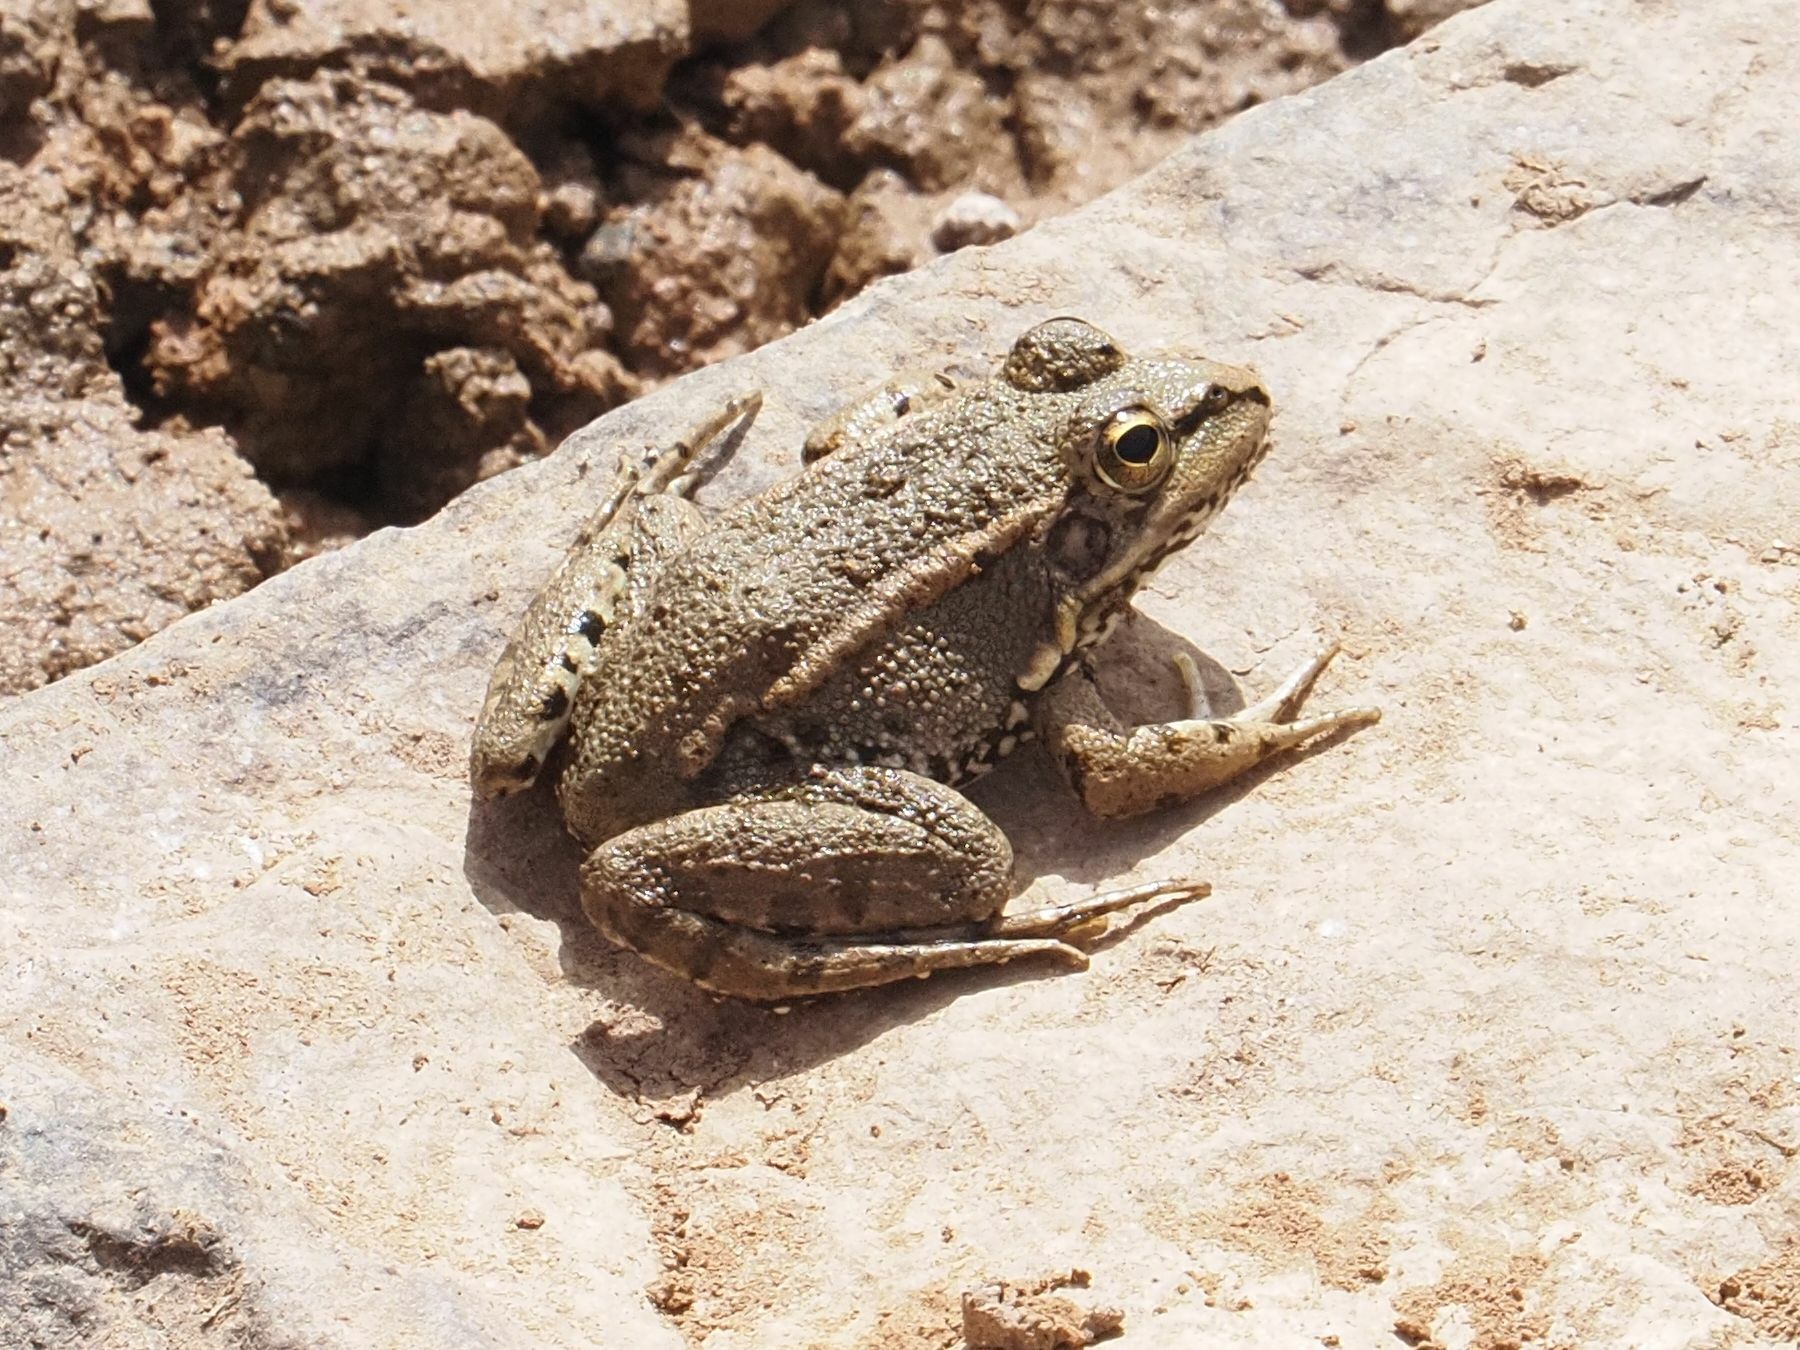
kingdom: Animalia
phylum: Chordata
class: Amphibia
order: Anura
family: Ranidae
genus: Pelophylax
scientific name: Pelophylax perezi
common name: Perez's frog
